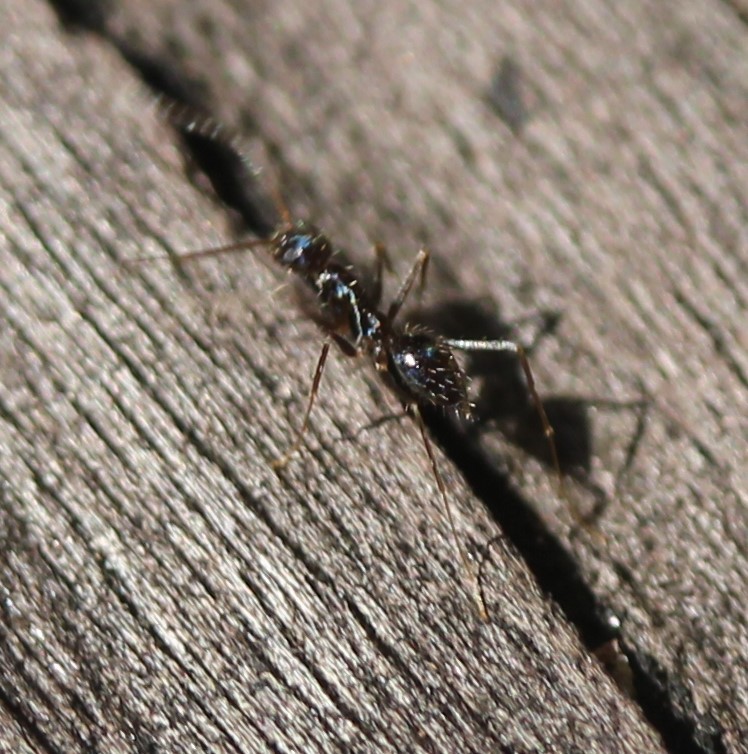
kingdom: Animalia
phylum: Arthropoda
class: Insecta
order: Hymenoptera
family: Formicidae
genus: Paratrechina
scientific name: Paratrechina longicornis
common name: Longhorned crazy ant
